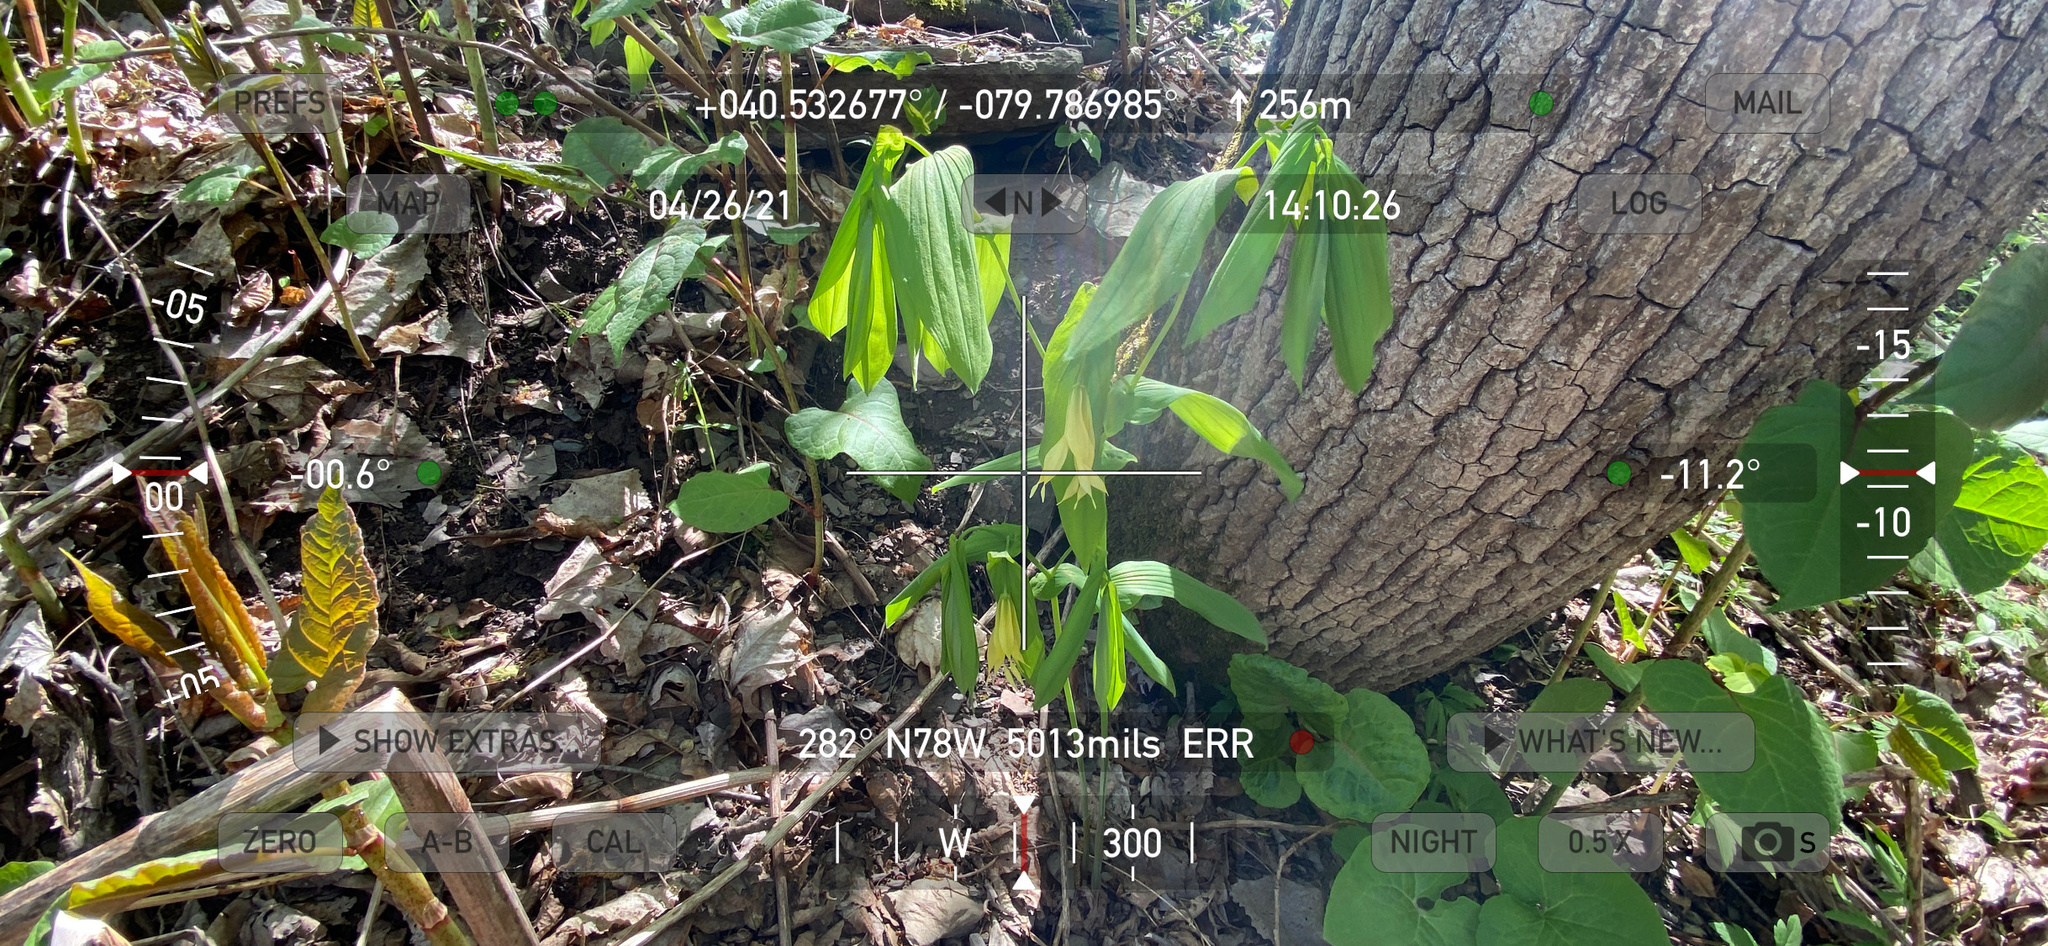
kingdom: Plantae
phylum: Tracheophyta
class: Liliopsida
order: Liliales
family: Colchicaceae
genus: Uvularia
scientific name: Uvularia grandiflora
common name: Bellwort
